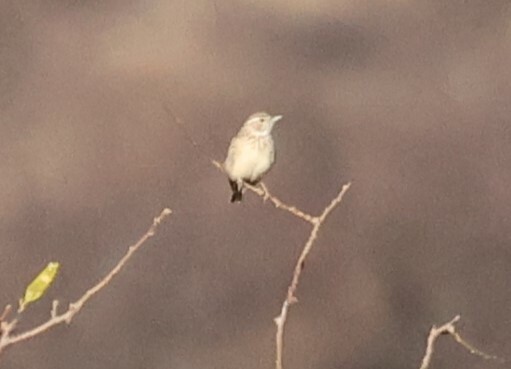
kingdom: Animalia
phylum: Chordata
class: Aves
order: Passeriformes
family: Alaudidae
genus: Calendulauda
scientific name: Calendulauda sabota
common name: Sabota lark
